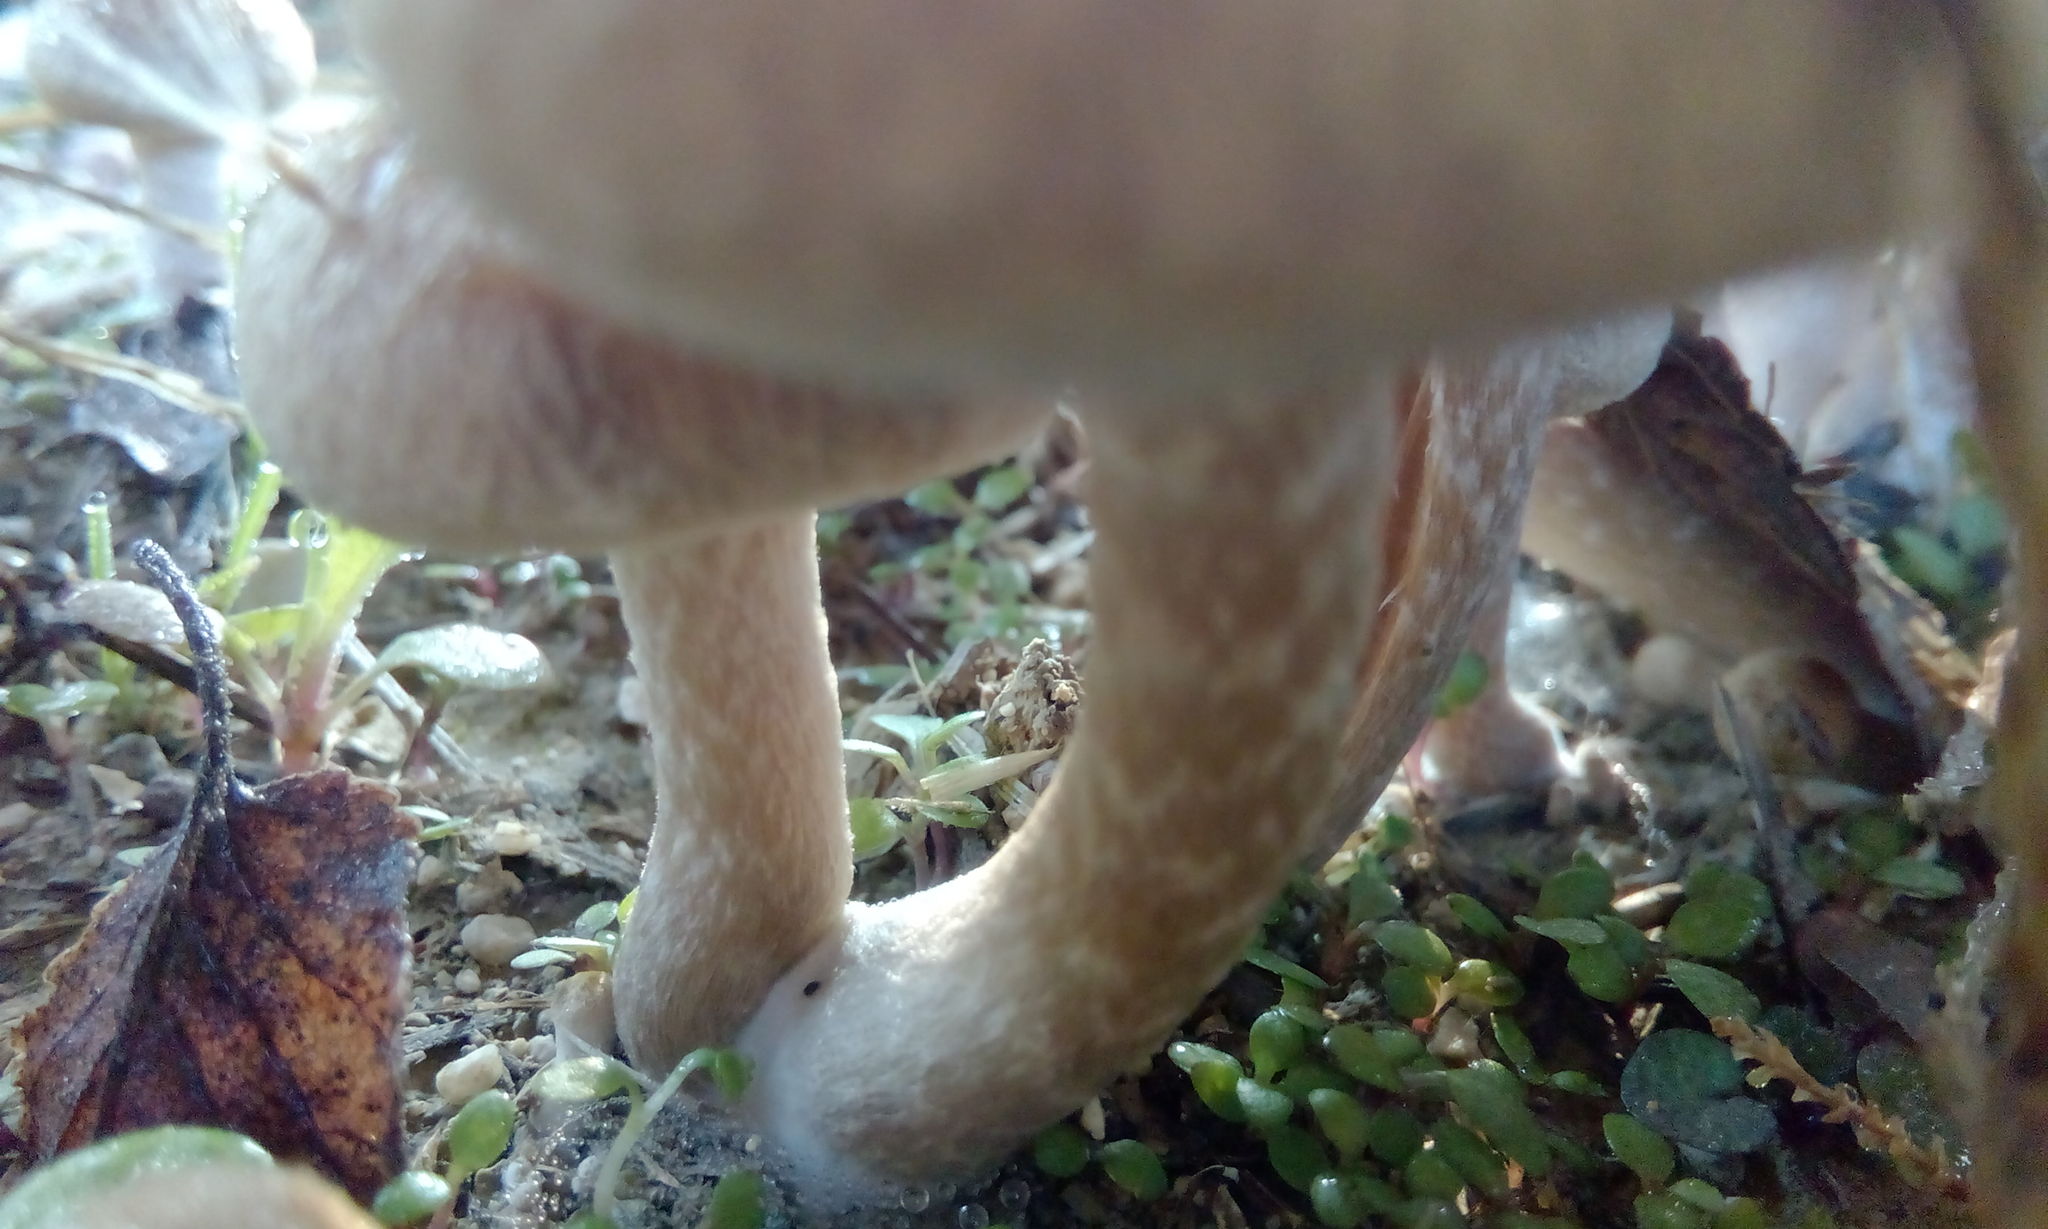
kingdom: Fungi
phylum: Basidiomycota
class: Agaricomycetes
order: Agaricales
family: Psathyrellaceae
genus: Lacrymaria
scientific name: Lacrymaria lacrymabunda
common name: Weeping widow
